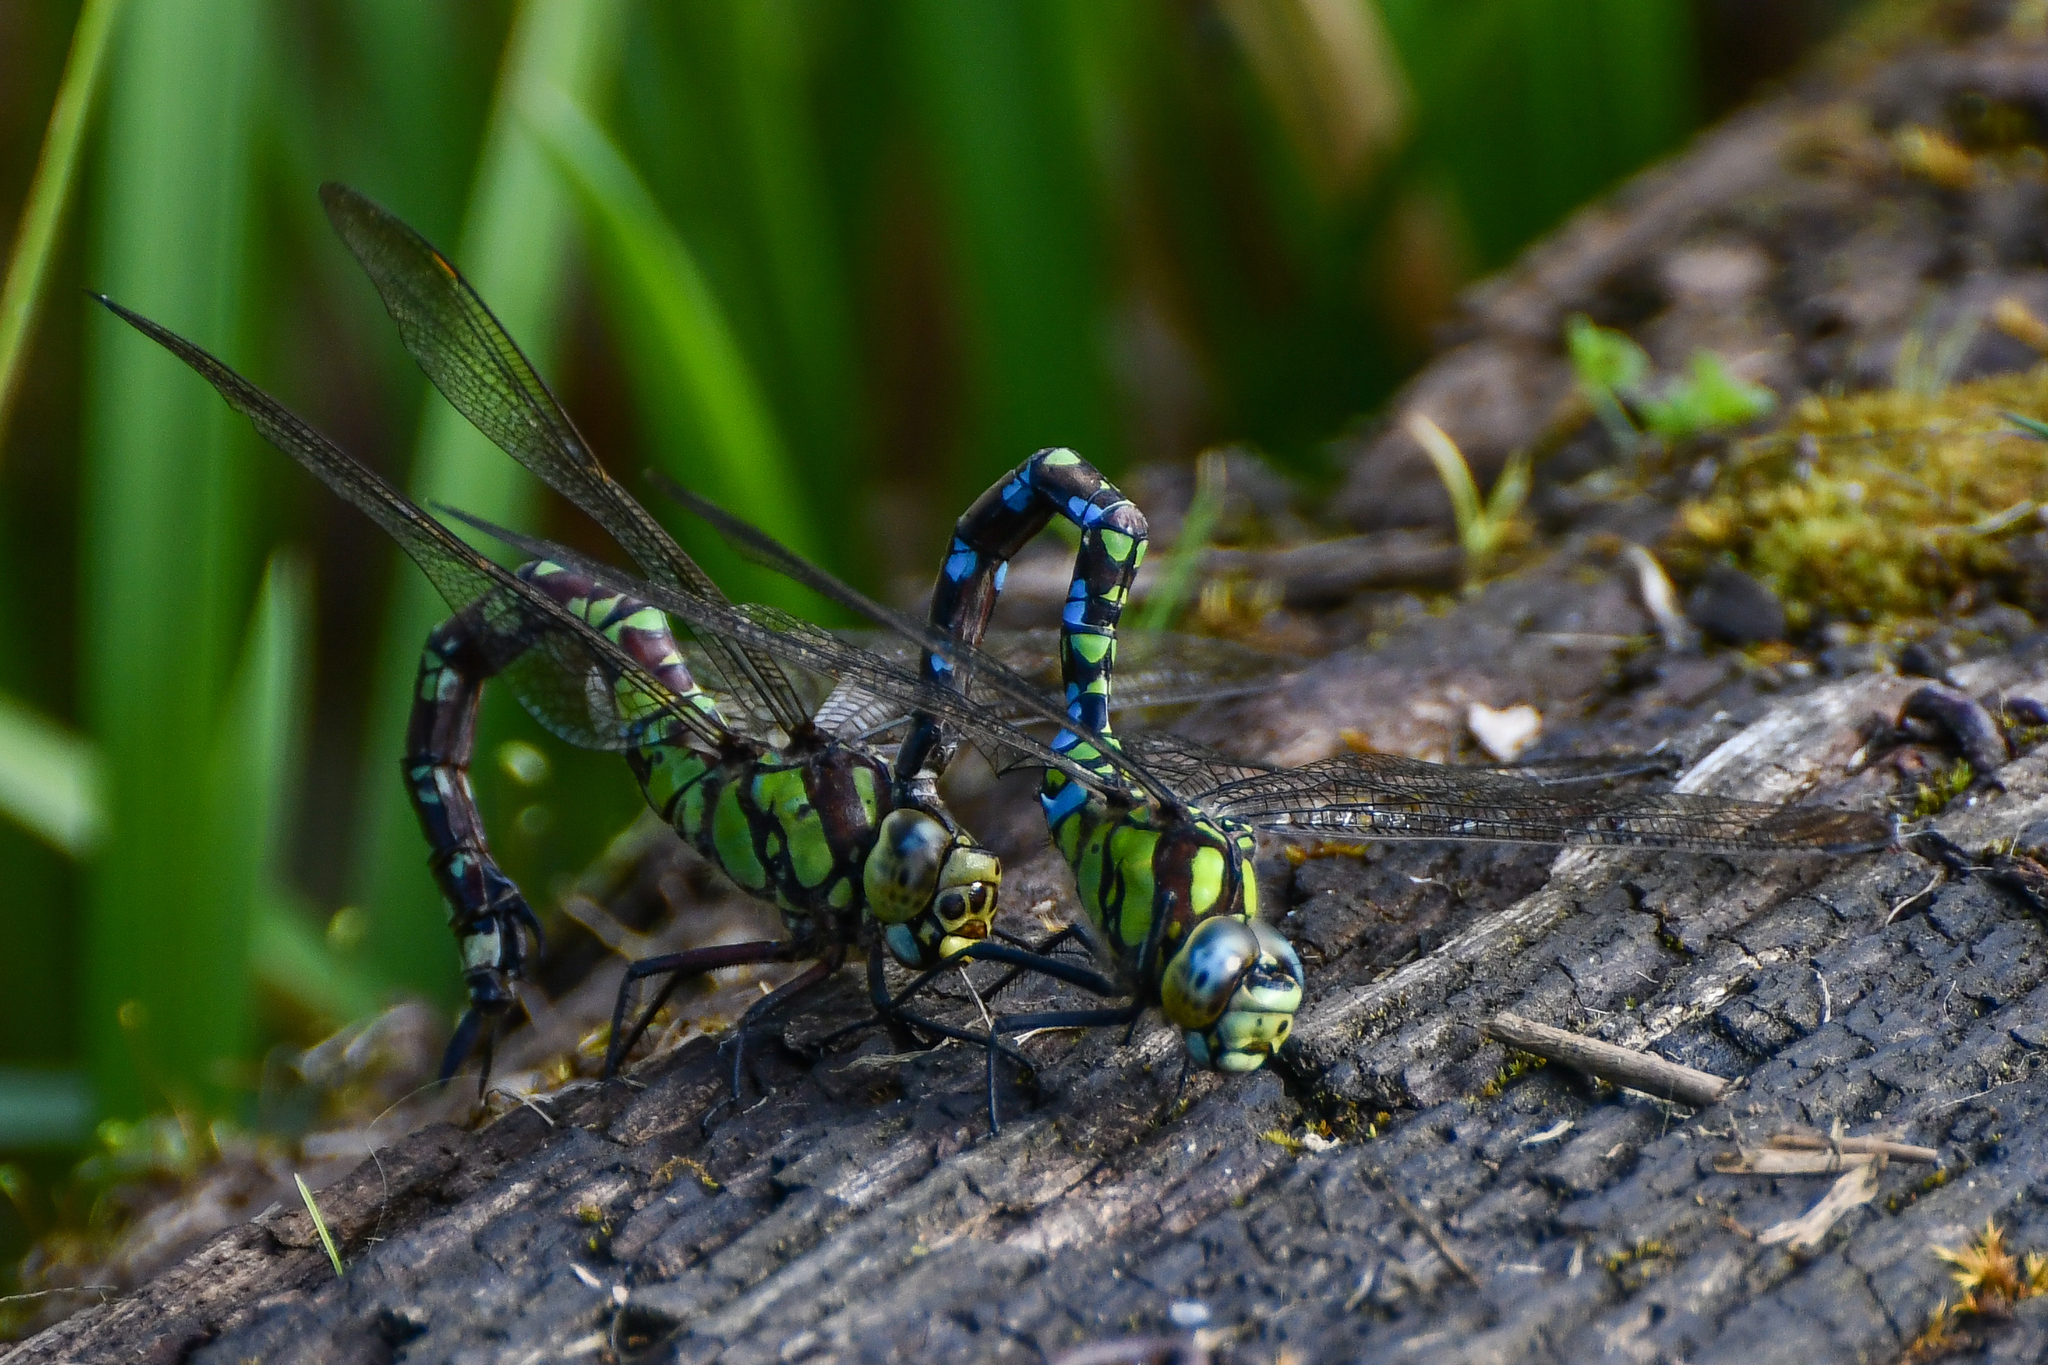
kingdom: Animalia
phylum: Arthropoda
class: Insecta
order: Odonata
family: Aeshnidae
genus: Aeshna
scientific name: Aeshna cyanea
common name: Southern hawker
